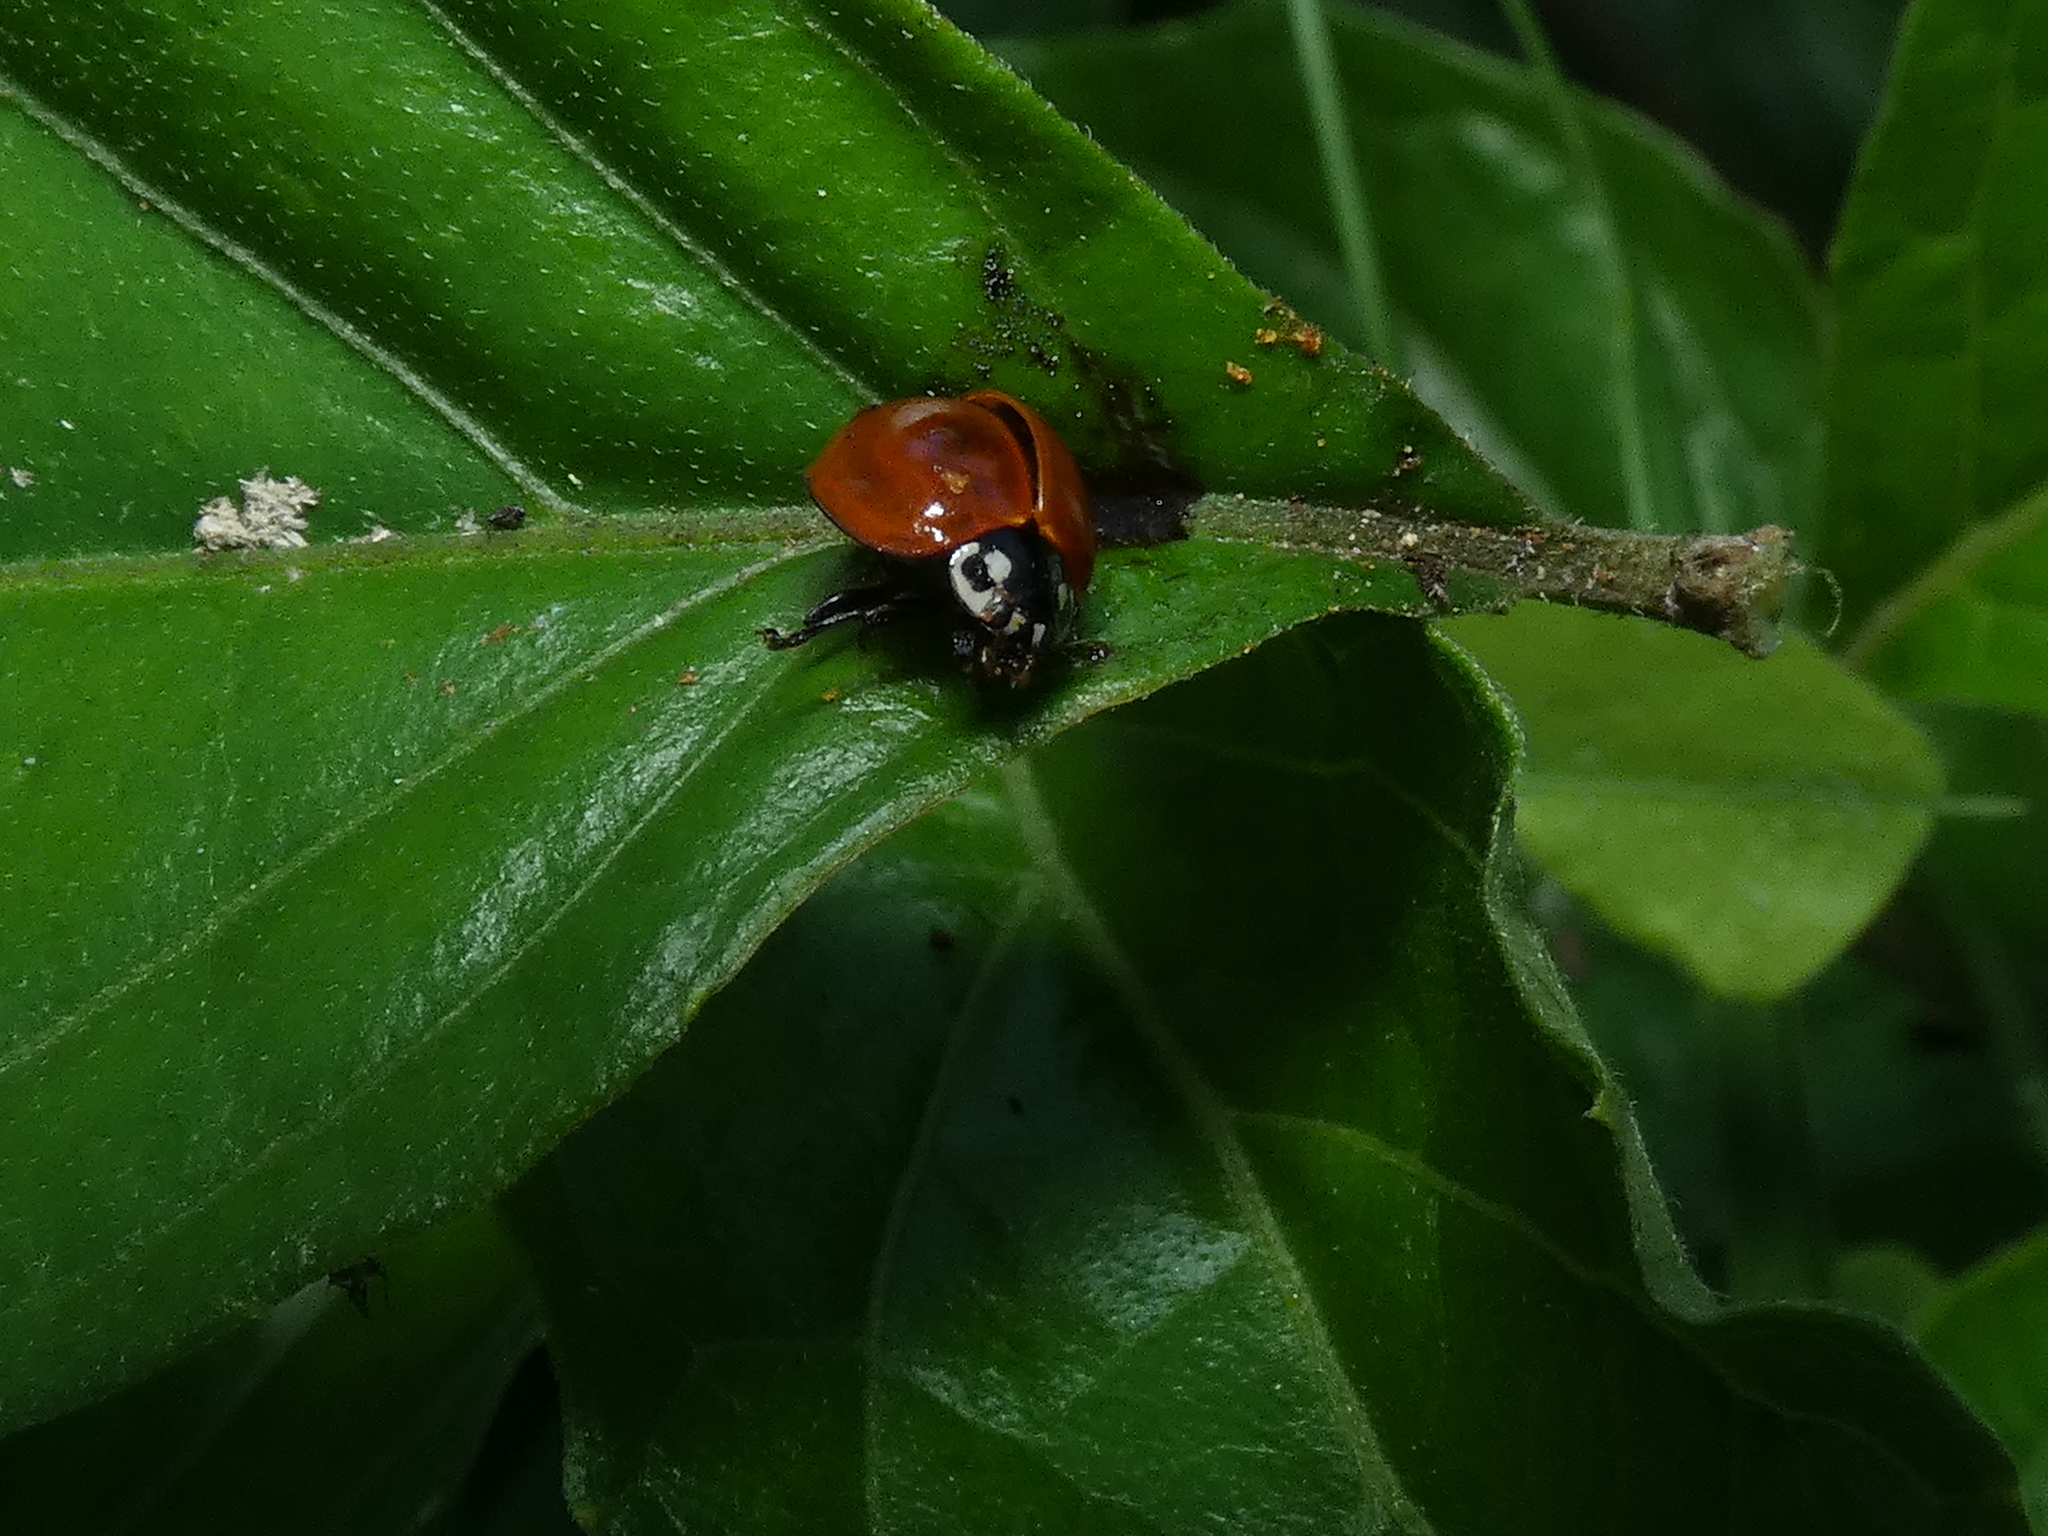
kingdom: Animalia
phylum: Arthropoda
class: Insecta
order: Coleoptera
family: Coccinellidae
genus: Cycloneda
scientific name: Cycloneda sanguinea
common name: Ladybird beetle
